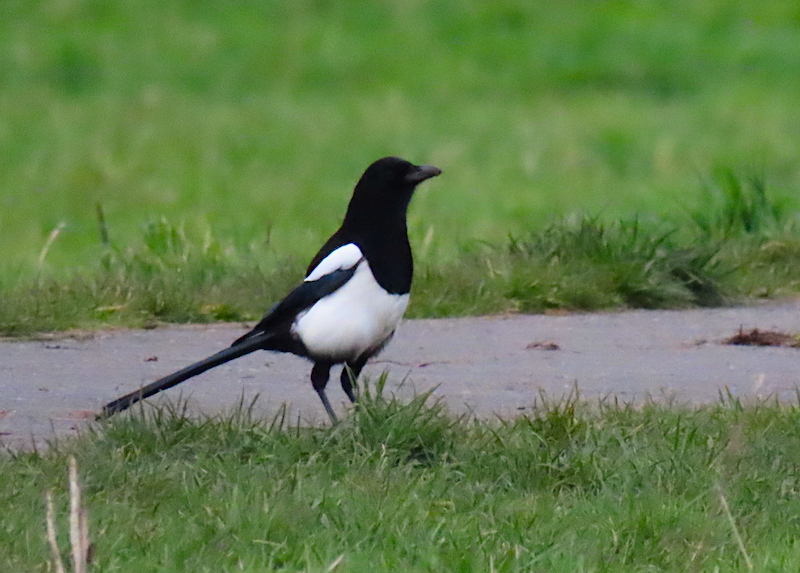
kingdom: Animalia
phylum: Chordata
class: Aves
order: Passeriformes
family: Corvidae
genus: Pica
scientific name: Pica pica
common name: Eurasian magpie
